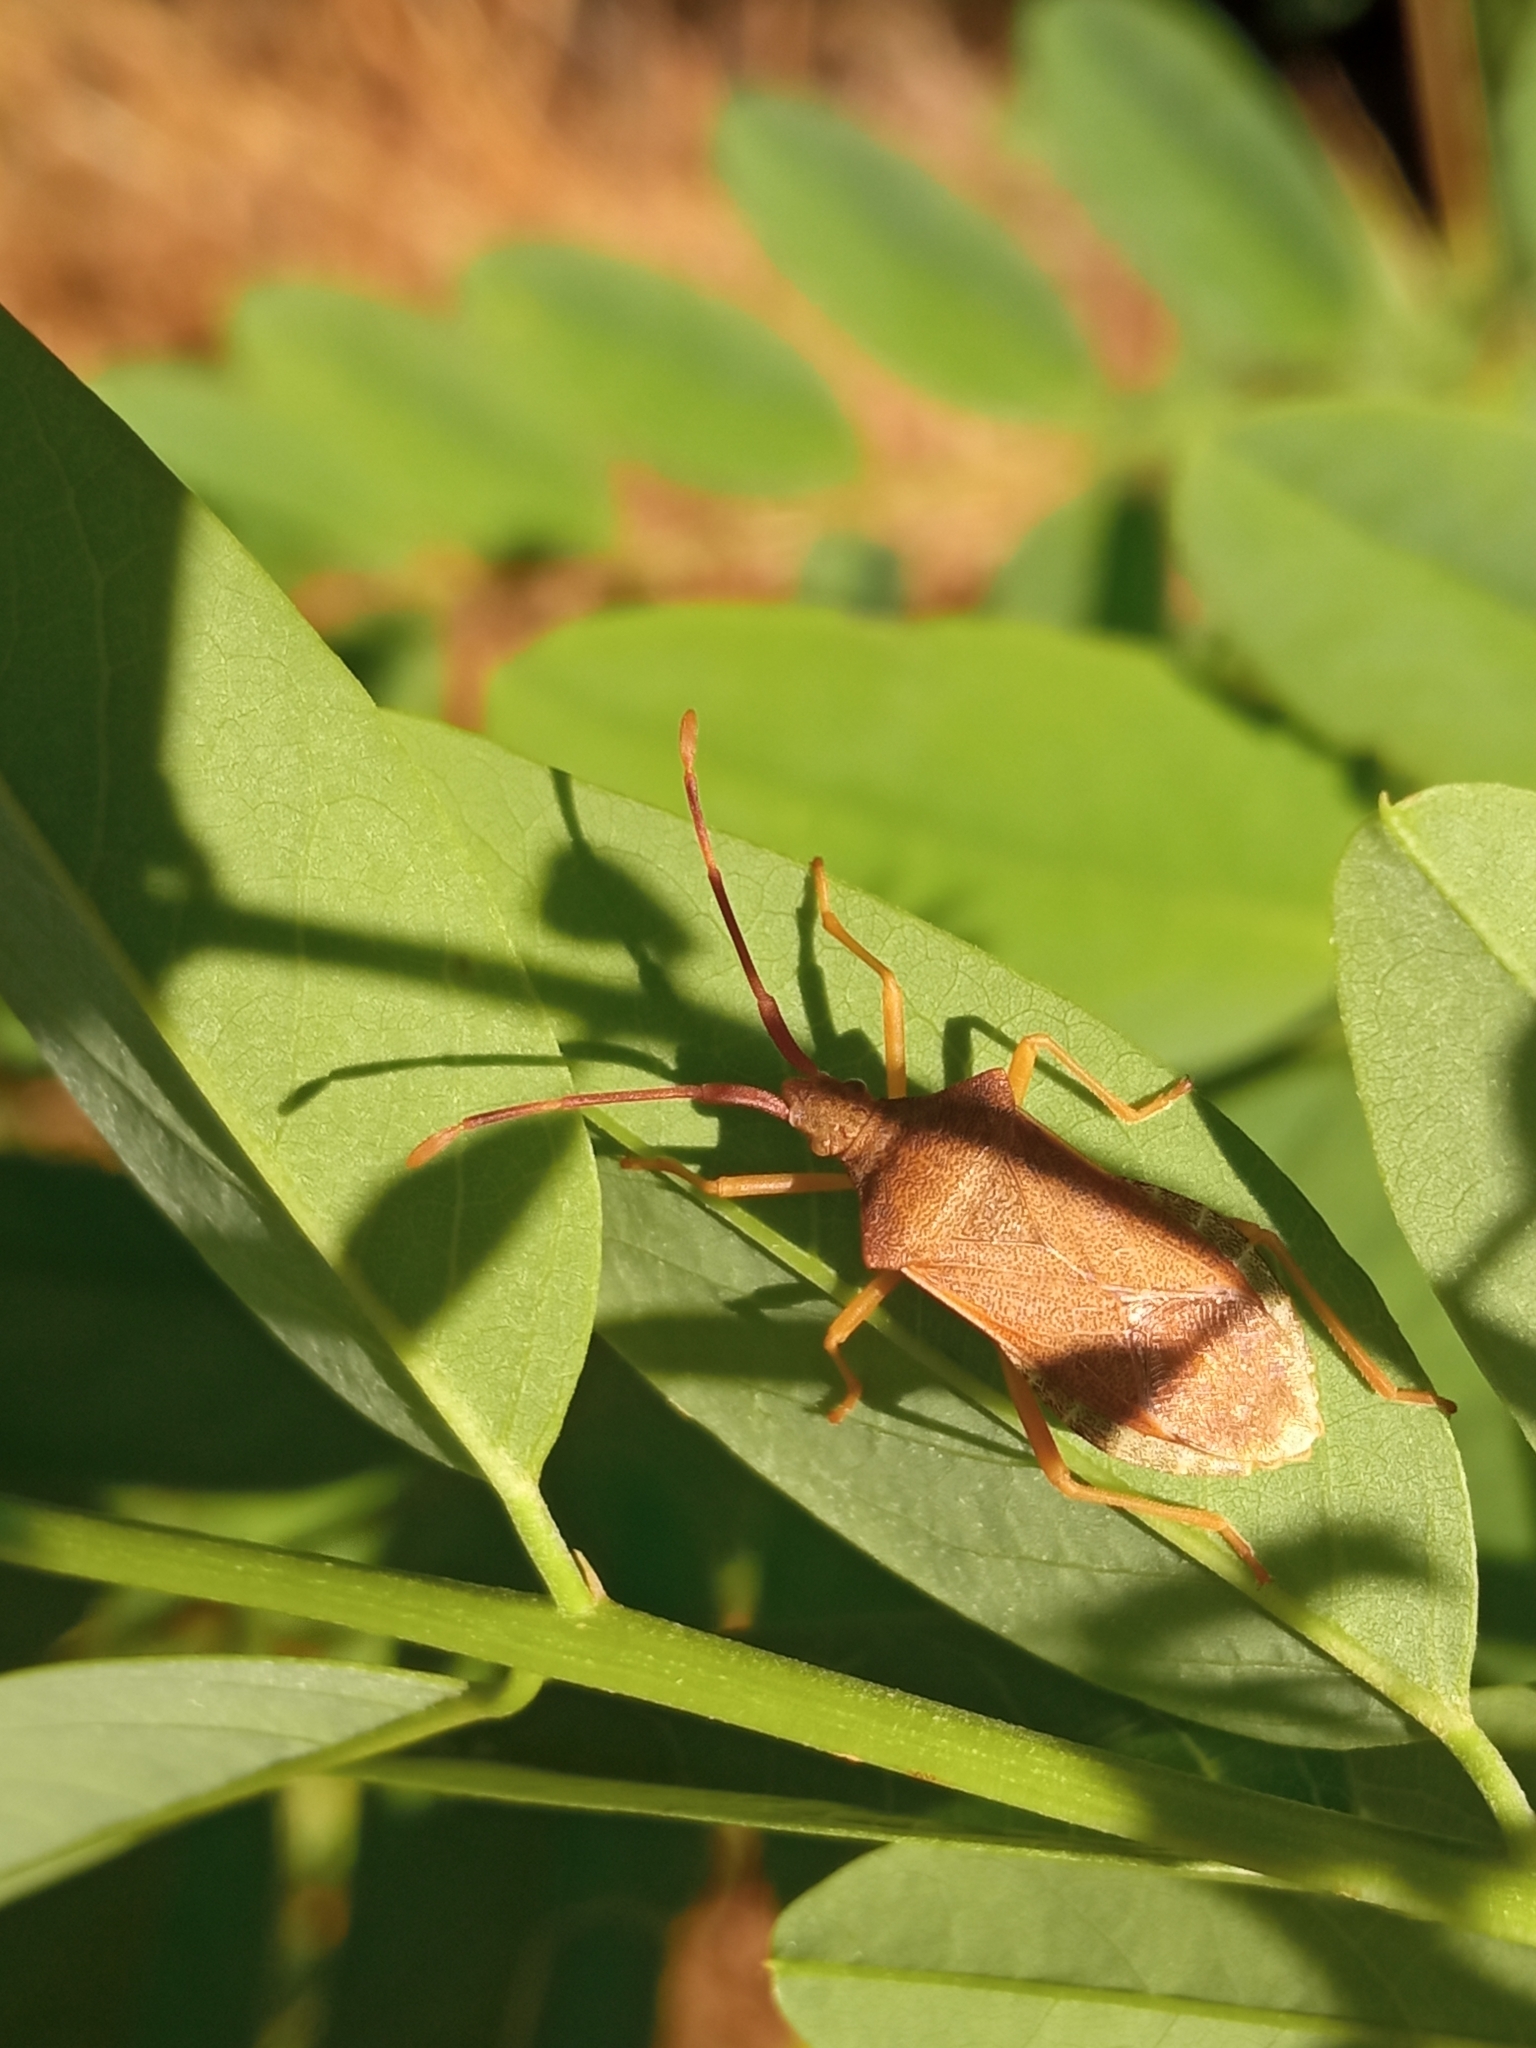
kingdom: Animalia
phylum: Arthropoda
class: Insecta
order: Hemiptera
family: Coreidae
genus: Gonocerus
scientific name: Gonocerus acuteangulatus
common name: Box bug
